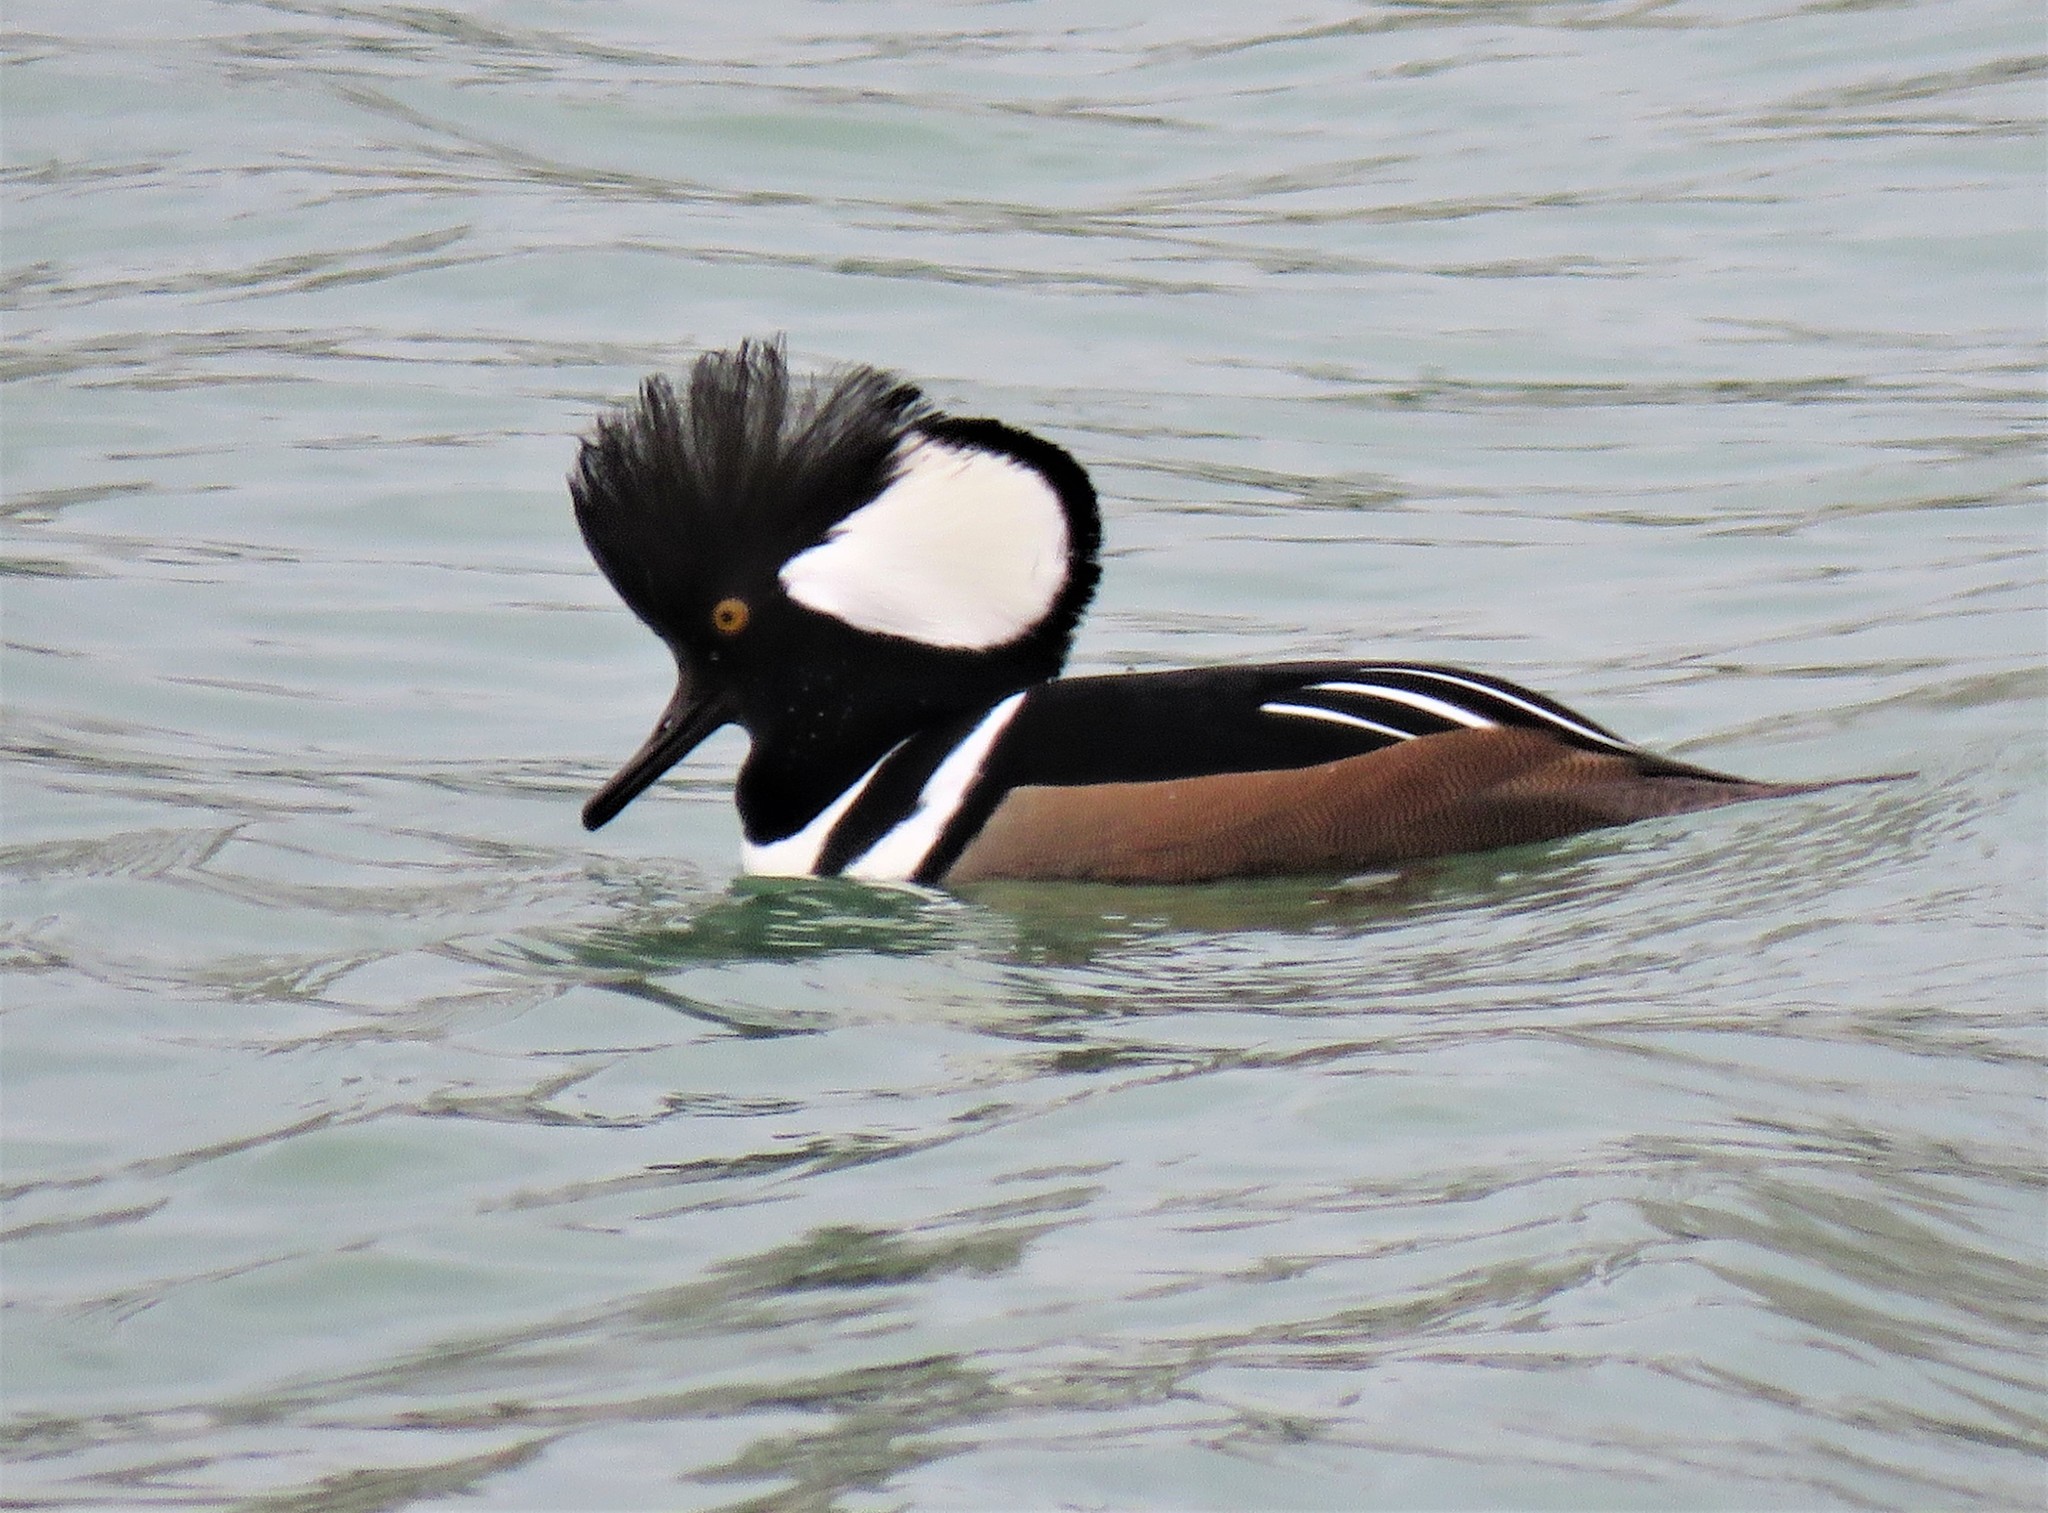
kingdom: Animalia
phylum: Chordata
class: Aves
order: Anseriformes
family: Anatidae
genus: Lophodytes
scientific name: Lophodytes cucullatus
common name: Hooded merganser
